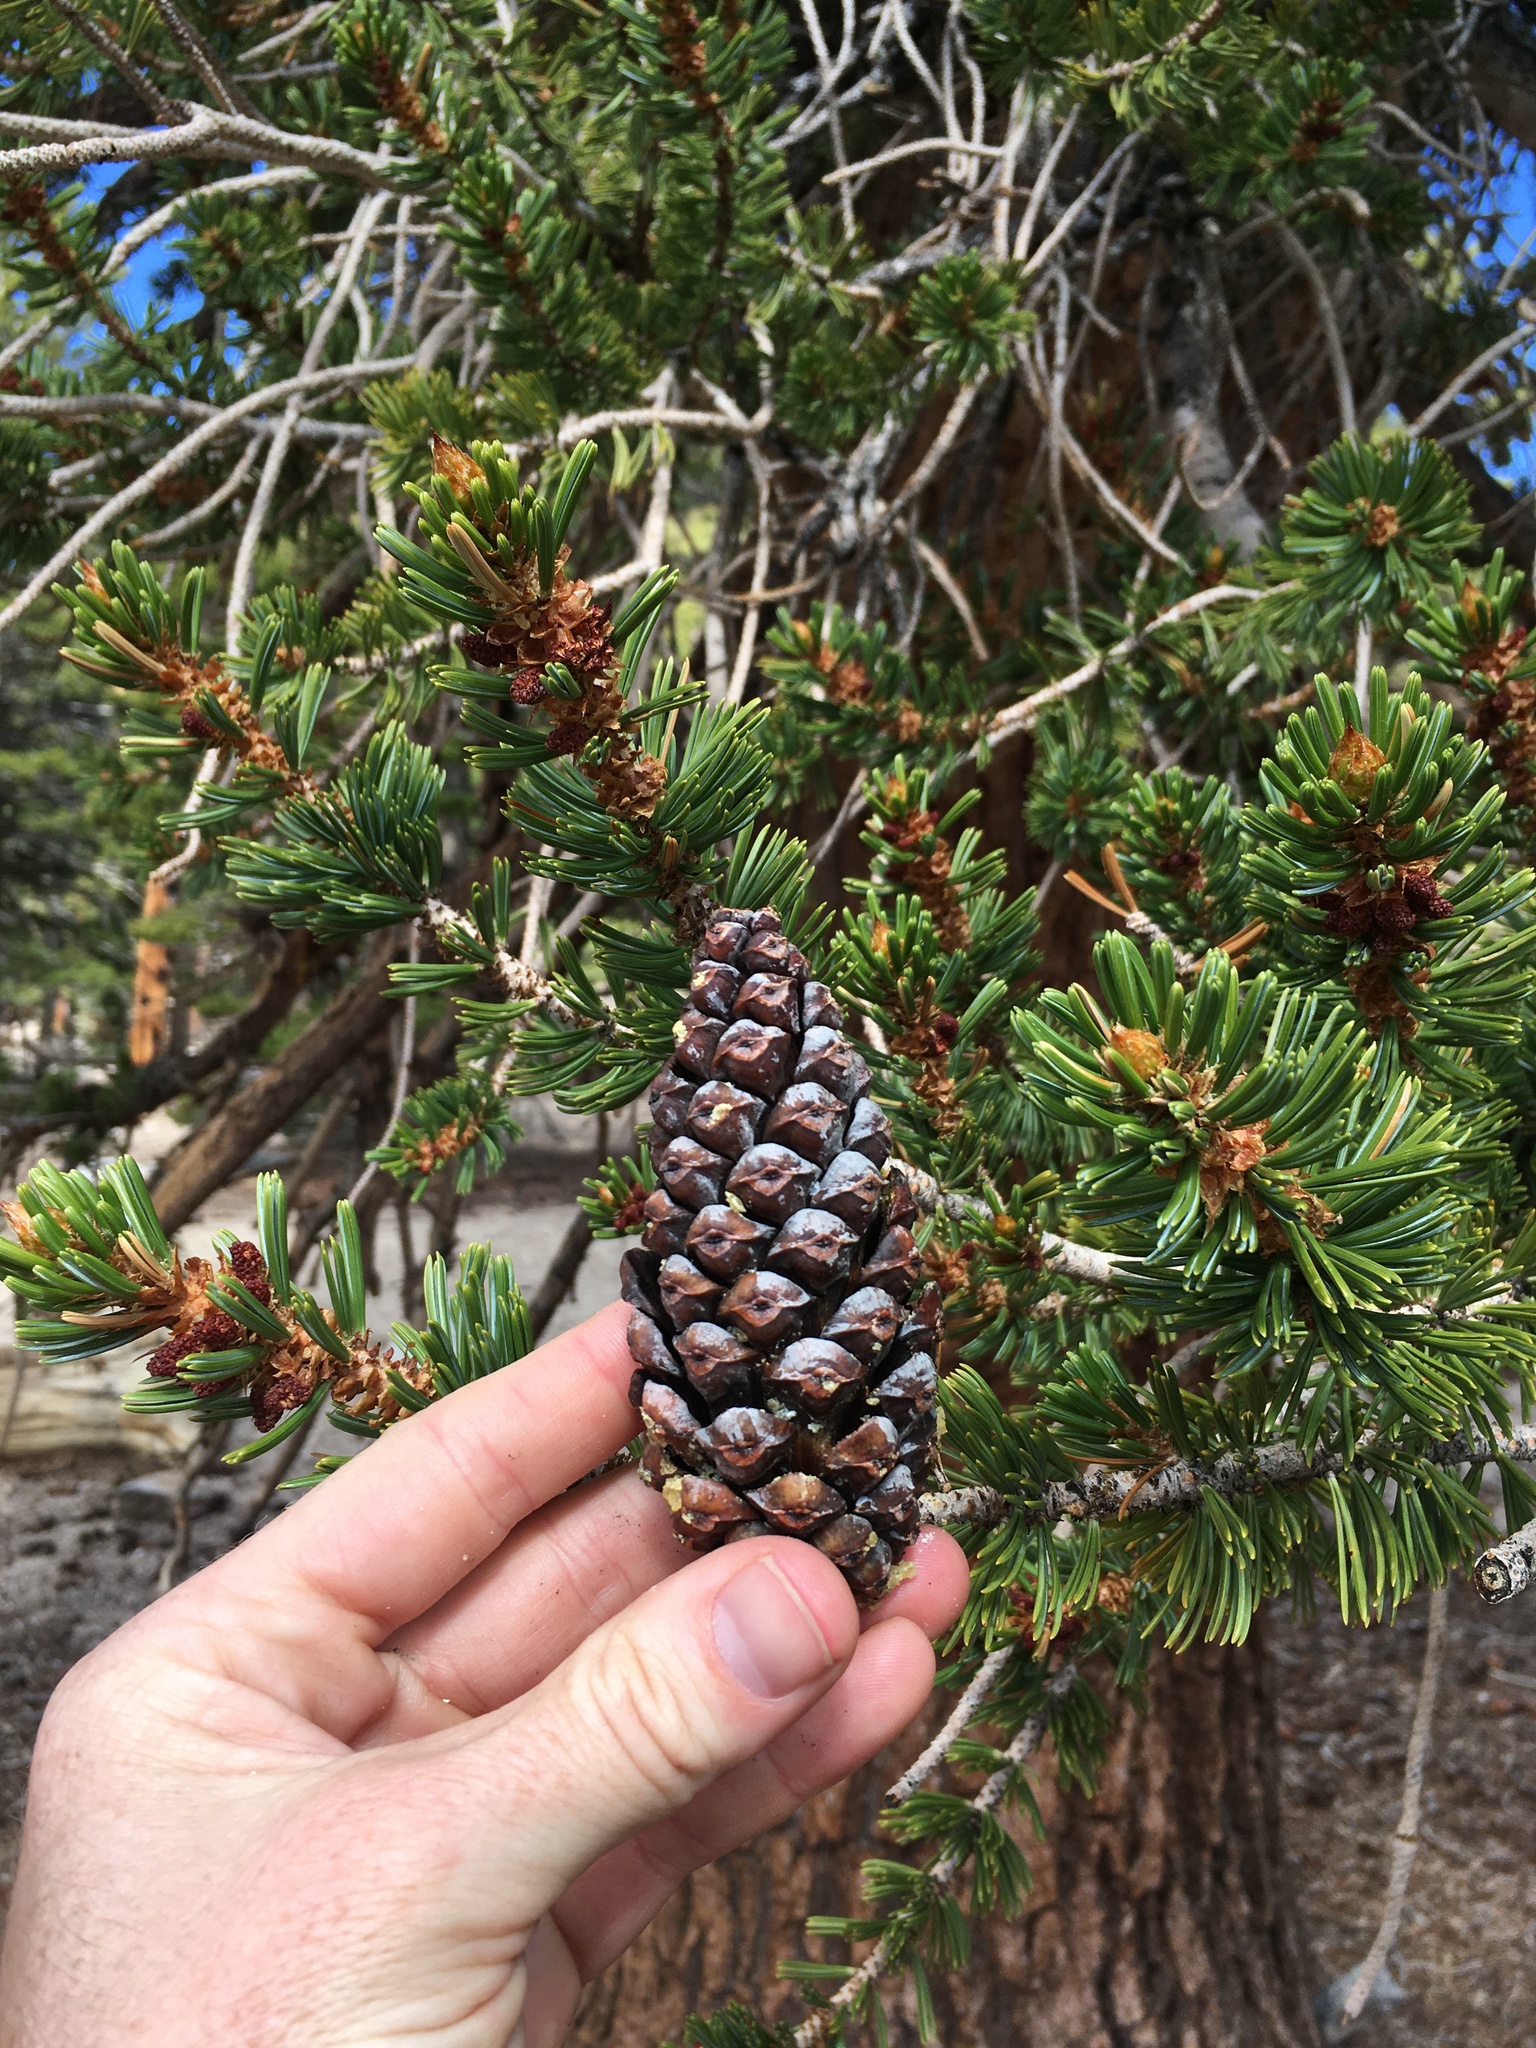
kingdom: Plantae
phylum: Tracheophyta
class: Pinopsida
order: Pinales
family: Pinaceae
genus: Pinus
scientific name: Pinus balfouriana
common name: Foxtail pine
